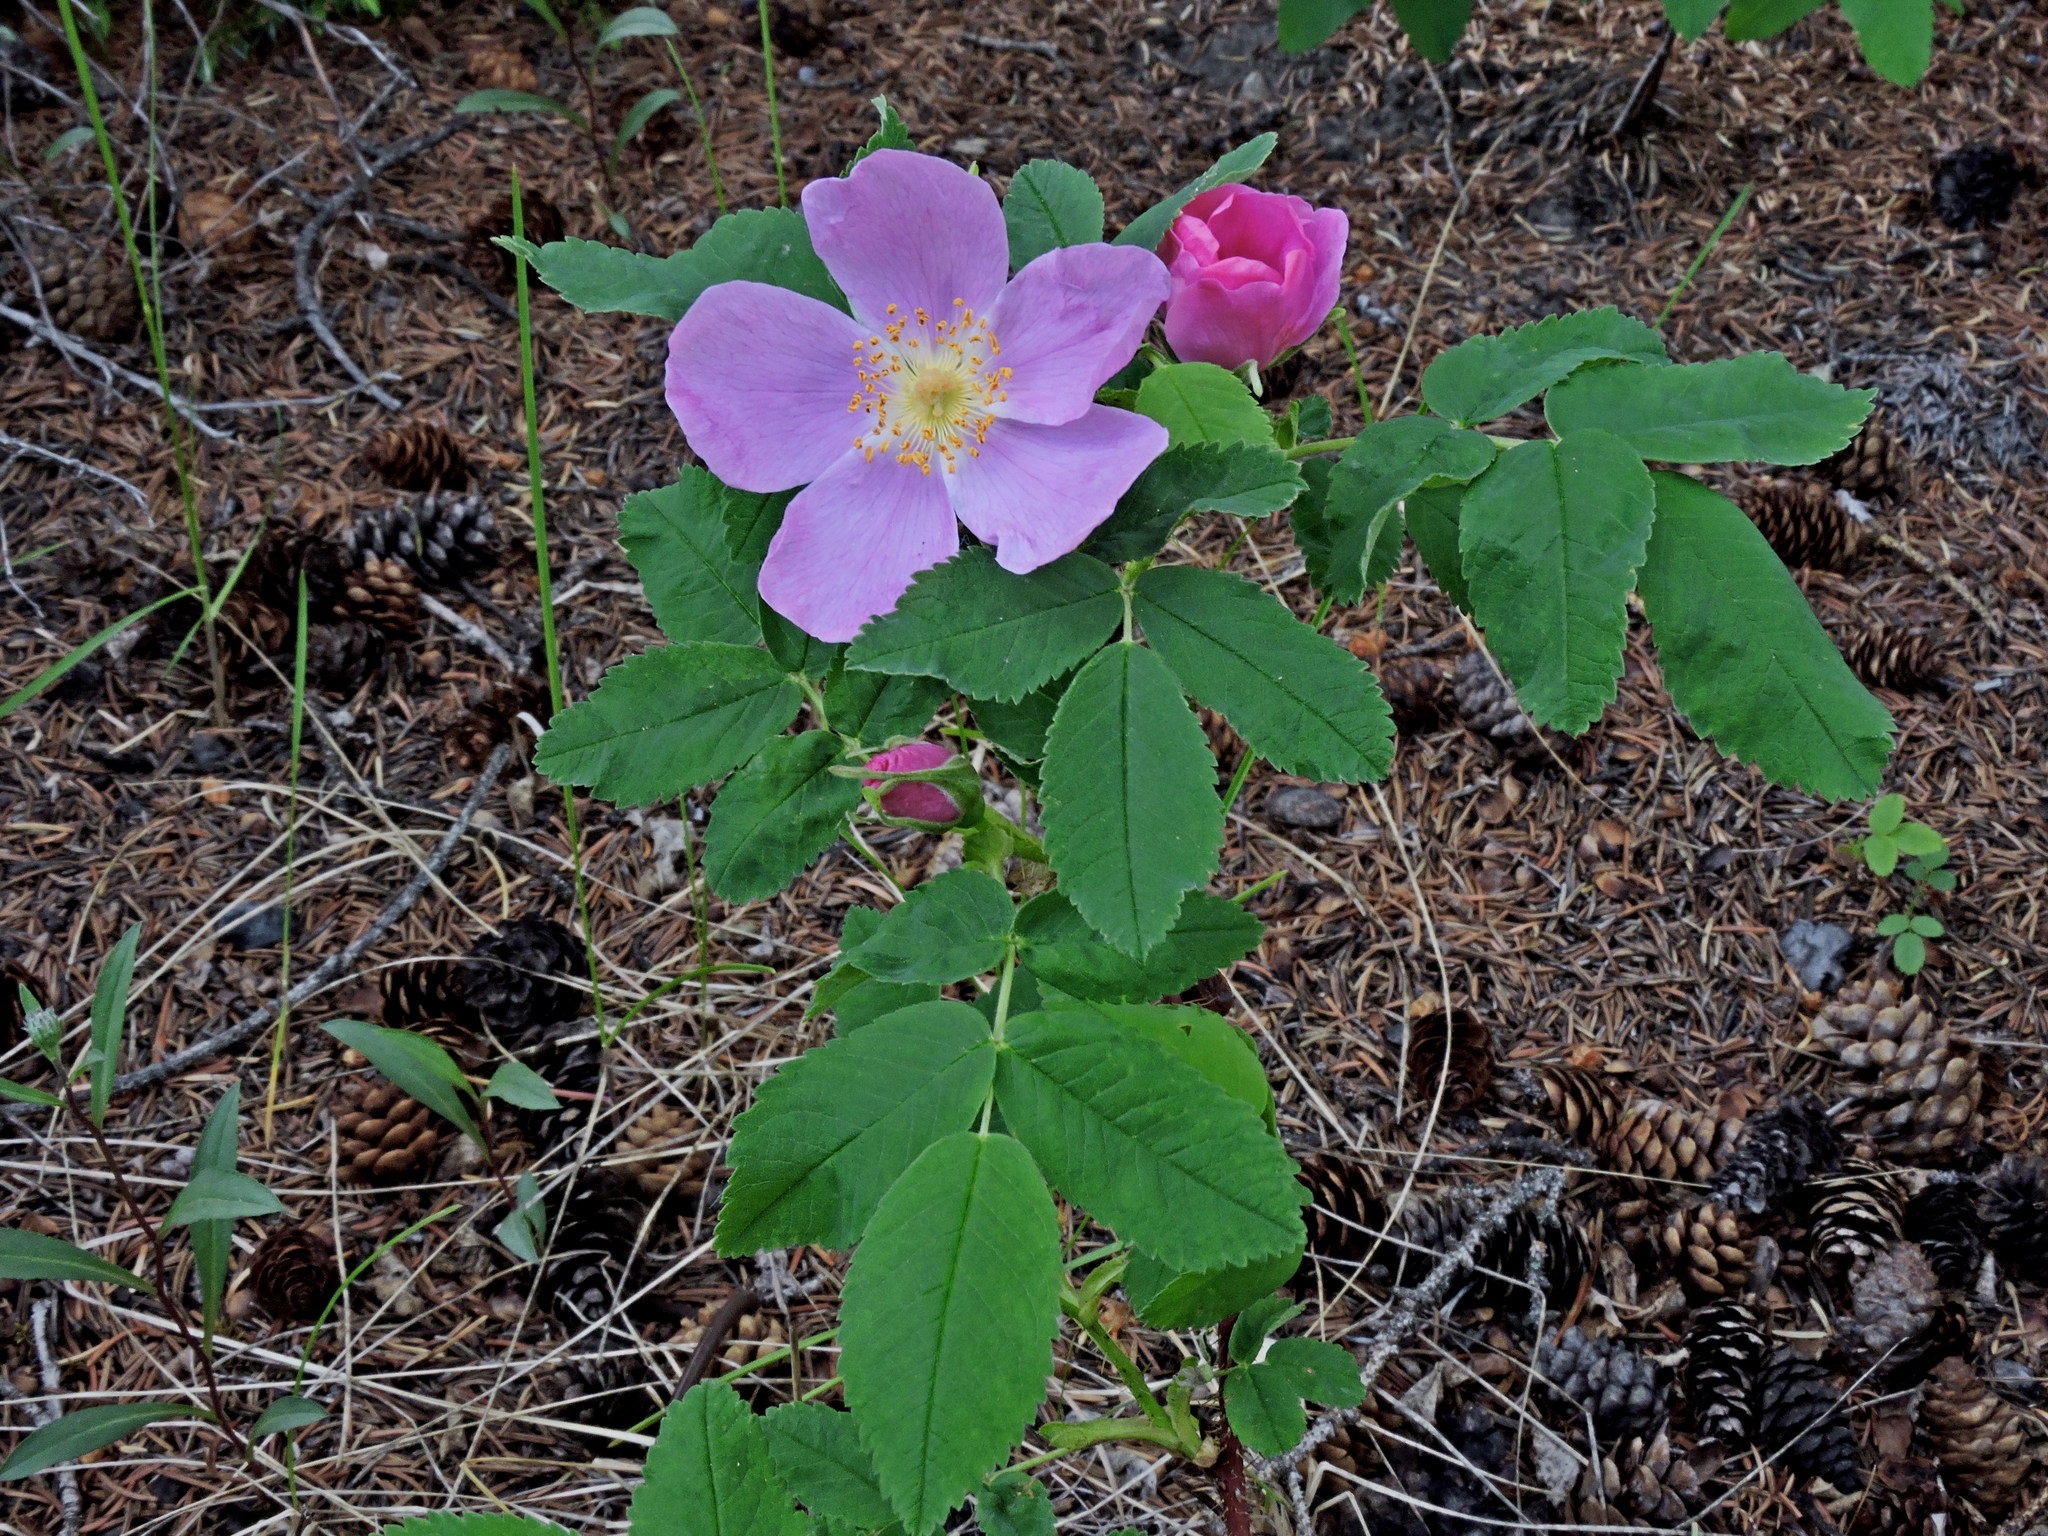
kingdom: Plantae
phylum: Tracheophyta
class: Magnoliopsida
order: Rosales
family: Rosaceae
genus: Rosa
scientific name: Rosa acicularis
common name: Prickly rose
